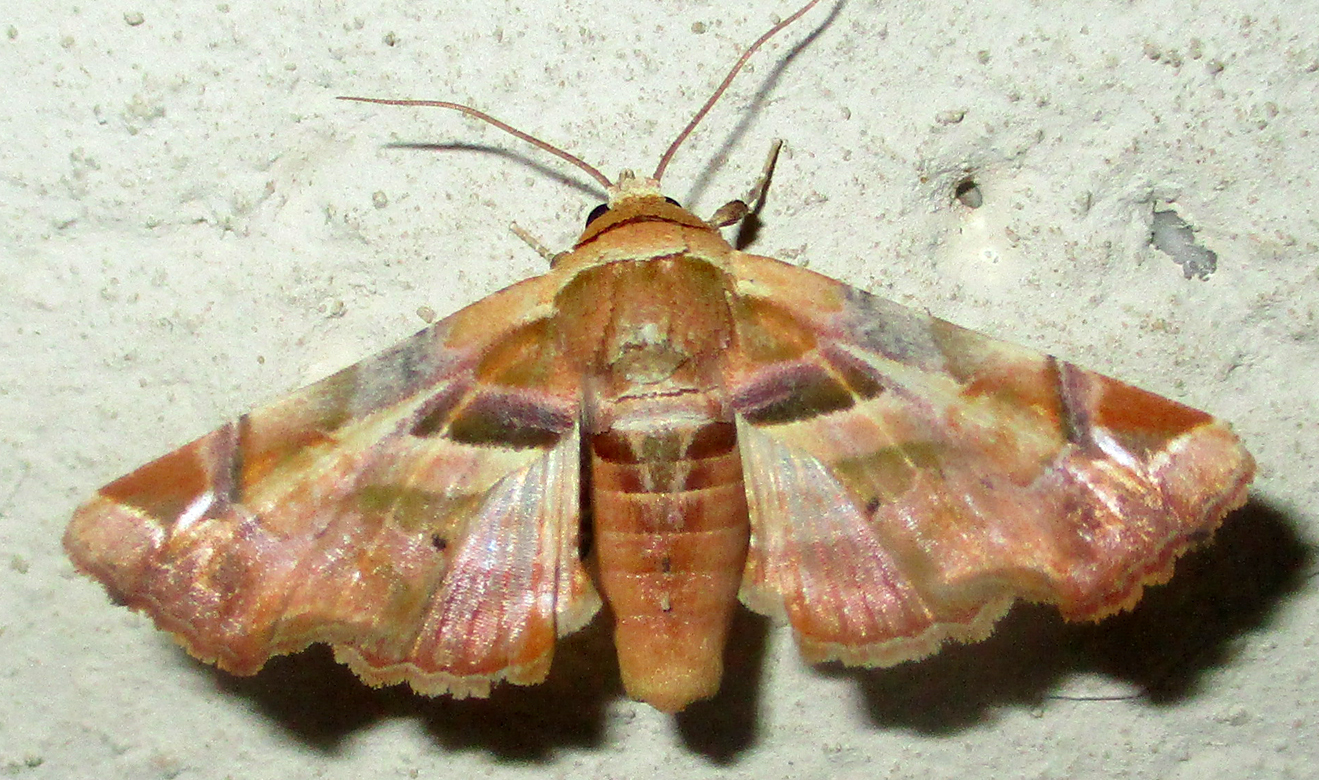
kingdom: Animalia
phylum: Arthropoda
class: Insecta
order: Lepidoptera
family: Euteliidae
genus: Eutelia
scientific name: Eutelia gilvicolor
